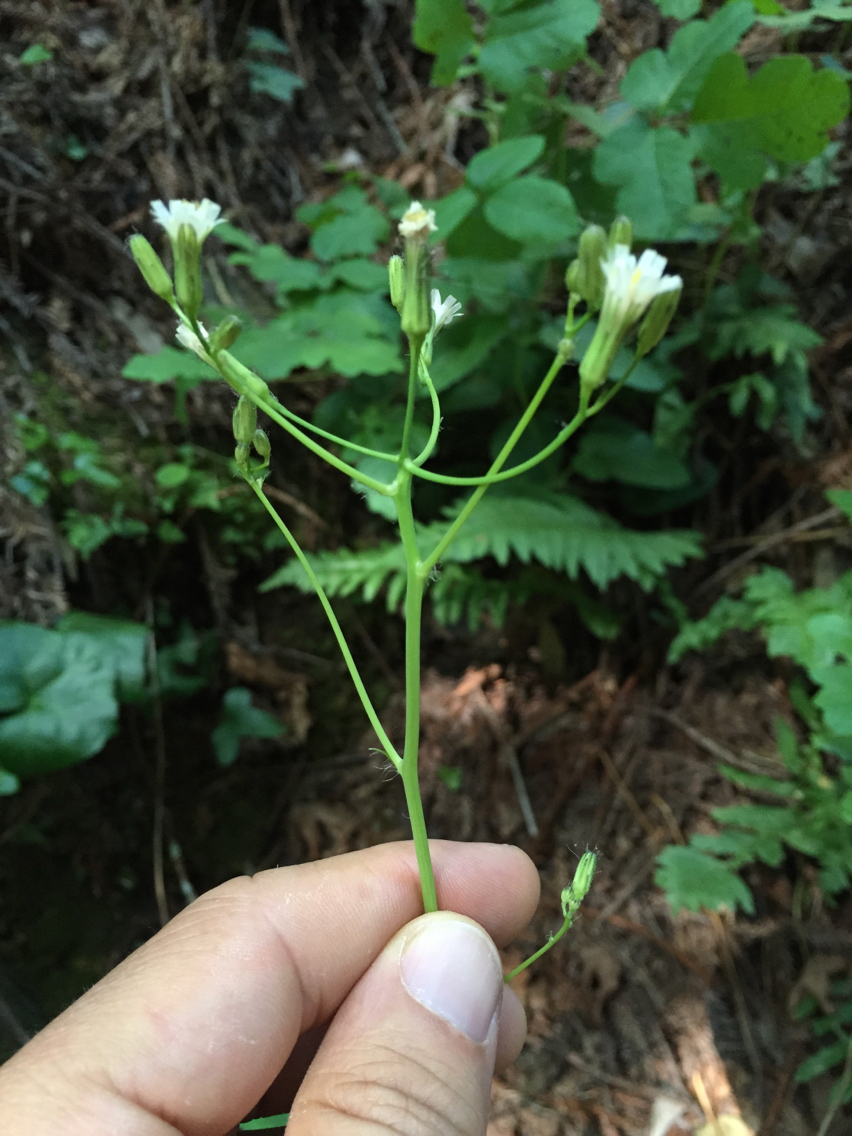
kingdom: Plantae
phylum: Tracheophyta
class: Magnoliopsida
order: Asterales
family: Asteraceae
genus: Hieracium
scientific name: Hieracium albiflorum
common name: White hawkweed
